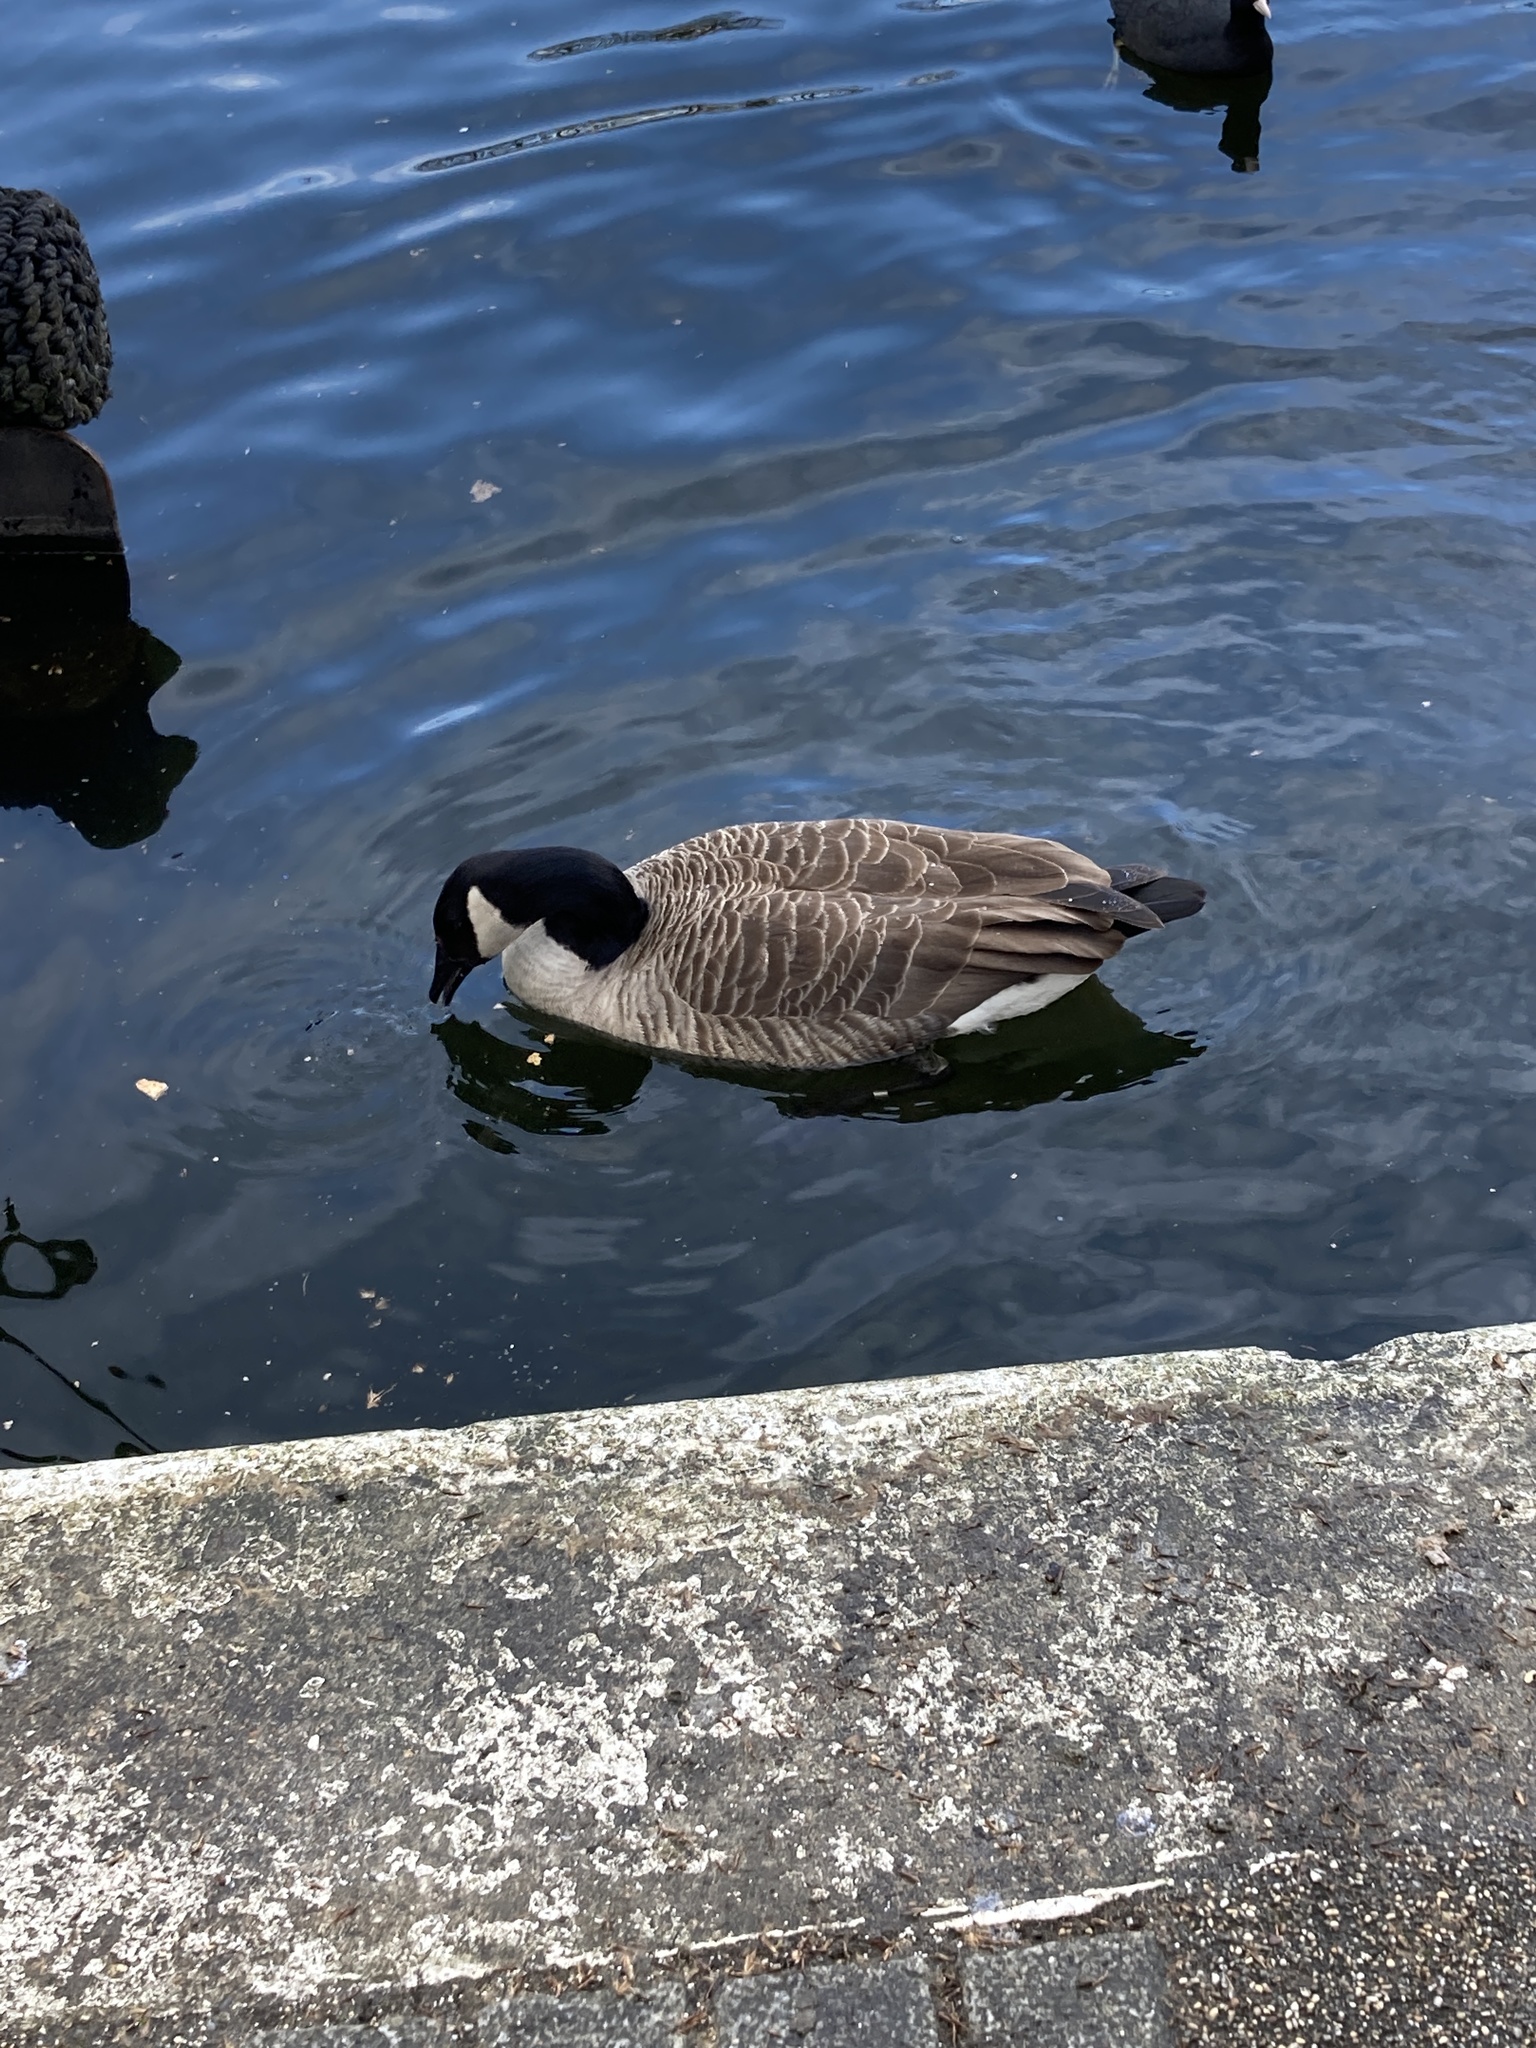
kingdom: Animalia
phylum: Chordata
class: Aves
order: Anseriformes
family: Anatidae
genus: Branta
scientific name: Branta canadensis
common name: Canada goose
